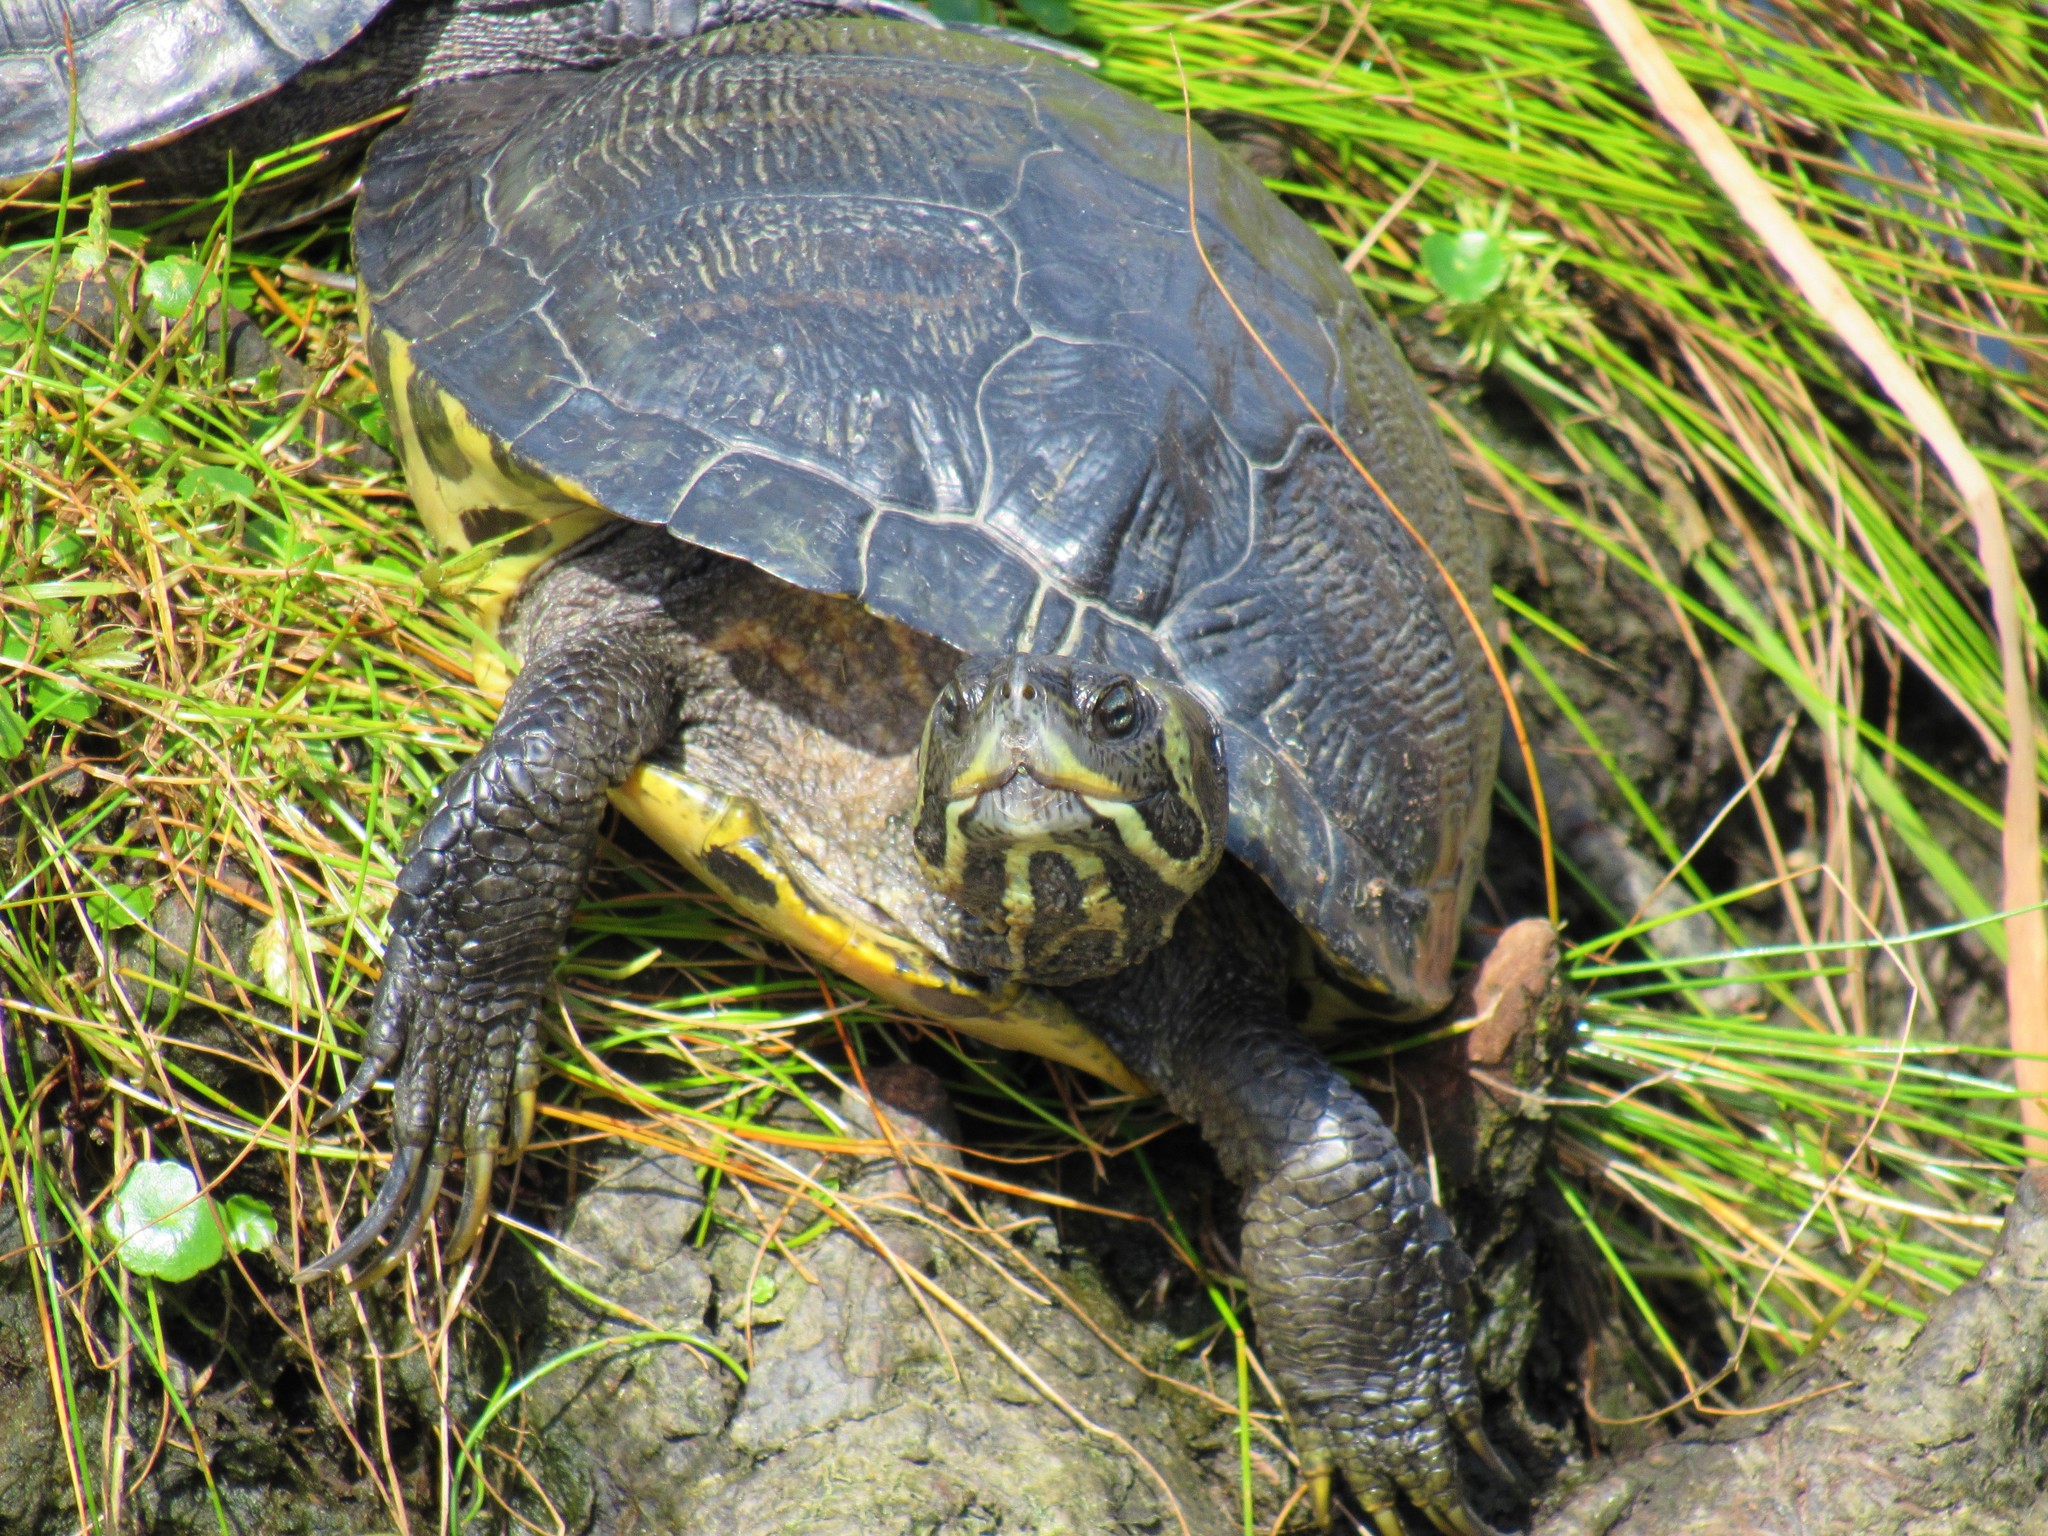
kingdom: Animalia
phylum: Chordata
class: Testudines
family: Emydidae
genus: Trachemys
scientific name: Trachemys scripta
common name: Slider
